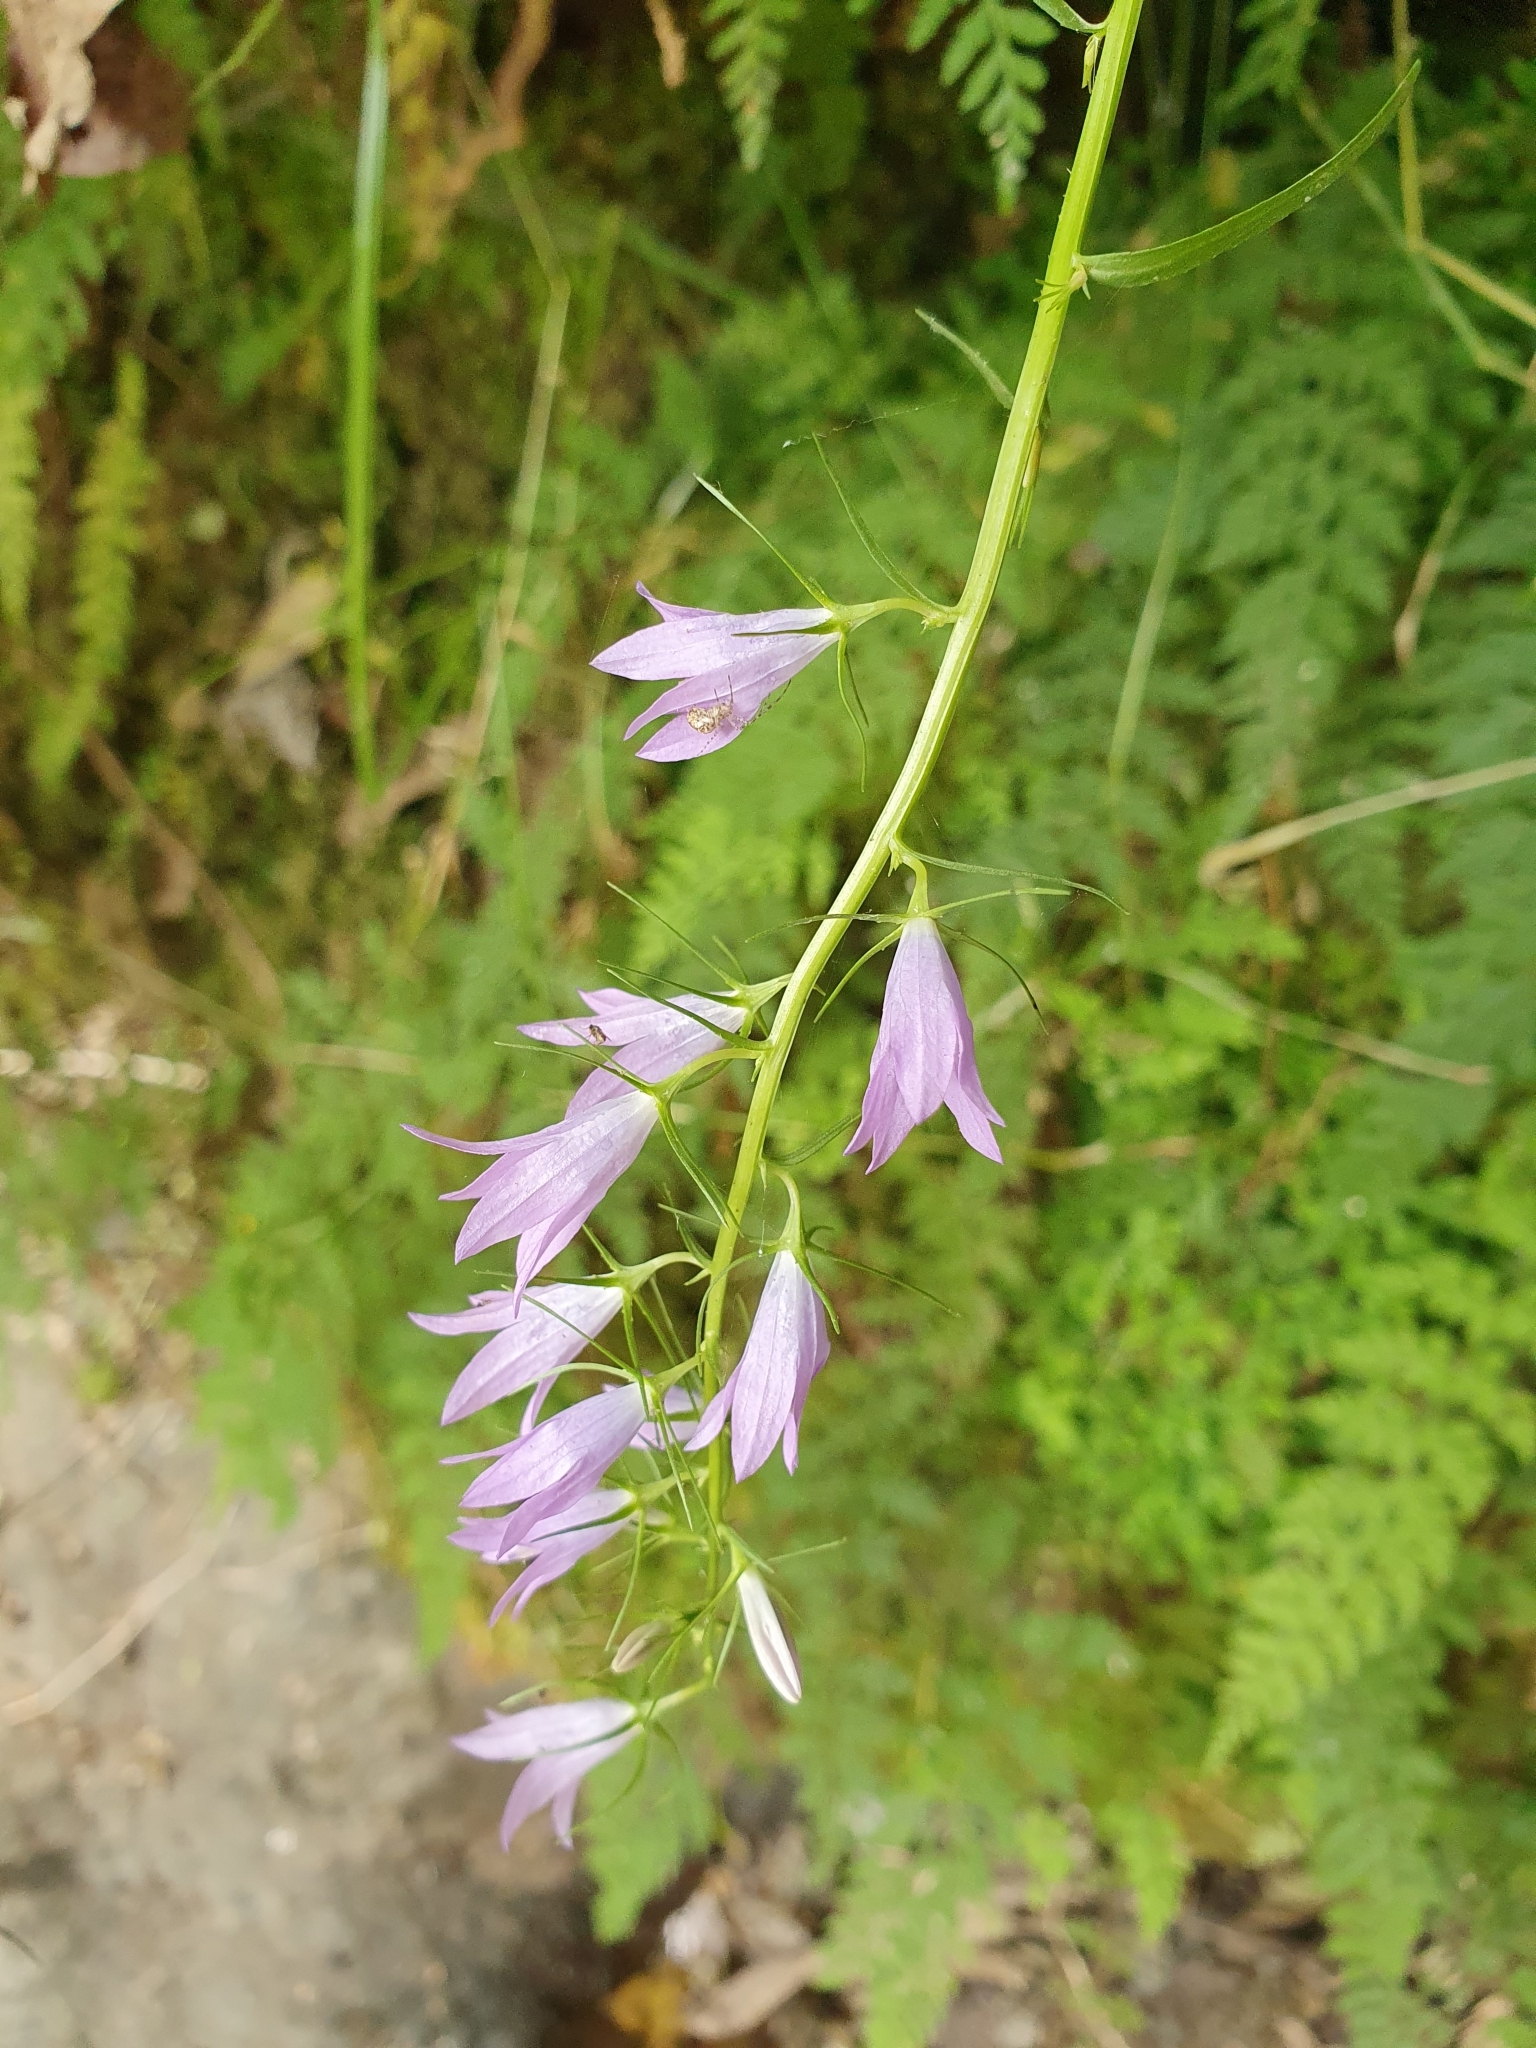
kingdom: Plantae
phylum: Tracheophyta
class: Magnoliopsida
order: Asterales
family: Campanulaceae
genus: Campanula
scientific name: Campanula rapunculus
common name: Rampion bellflower
